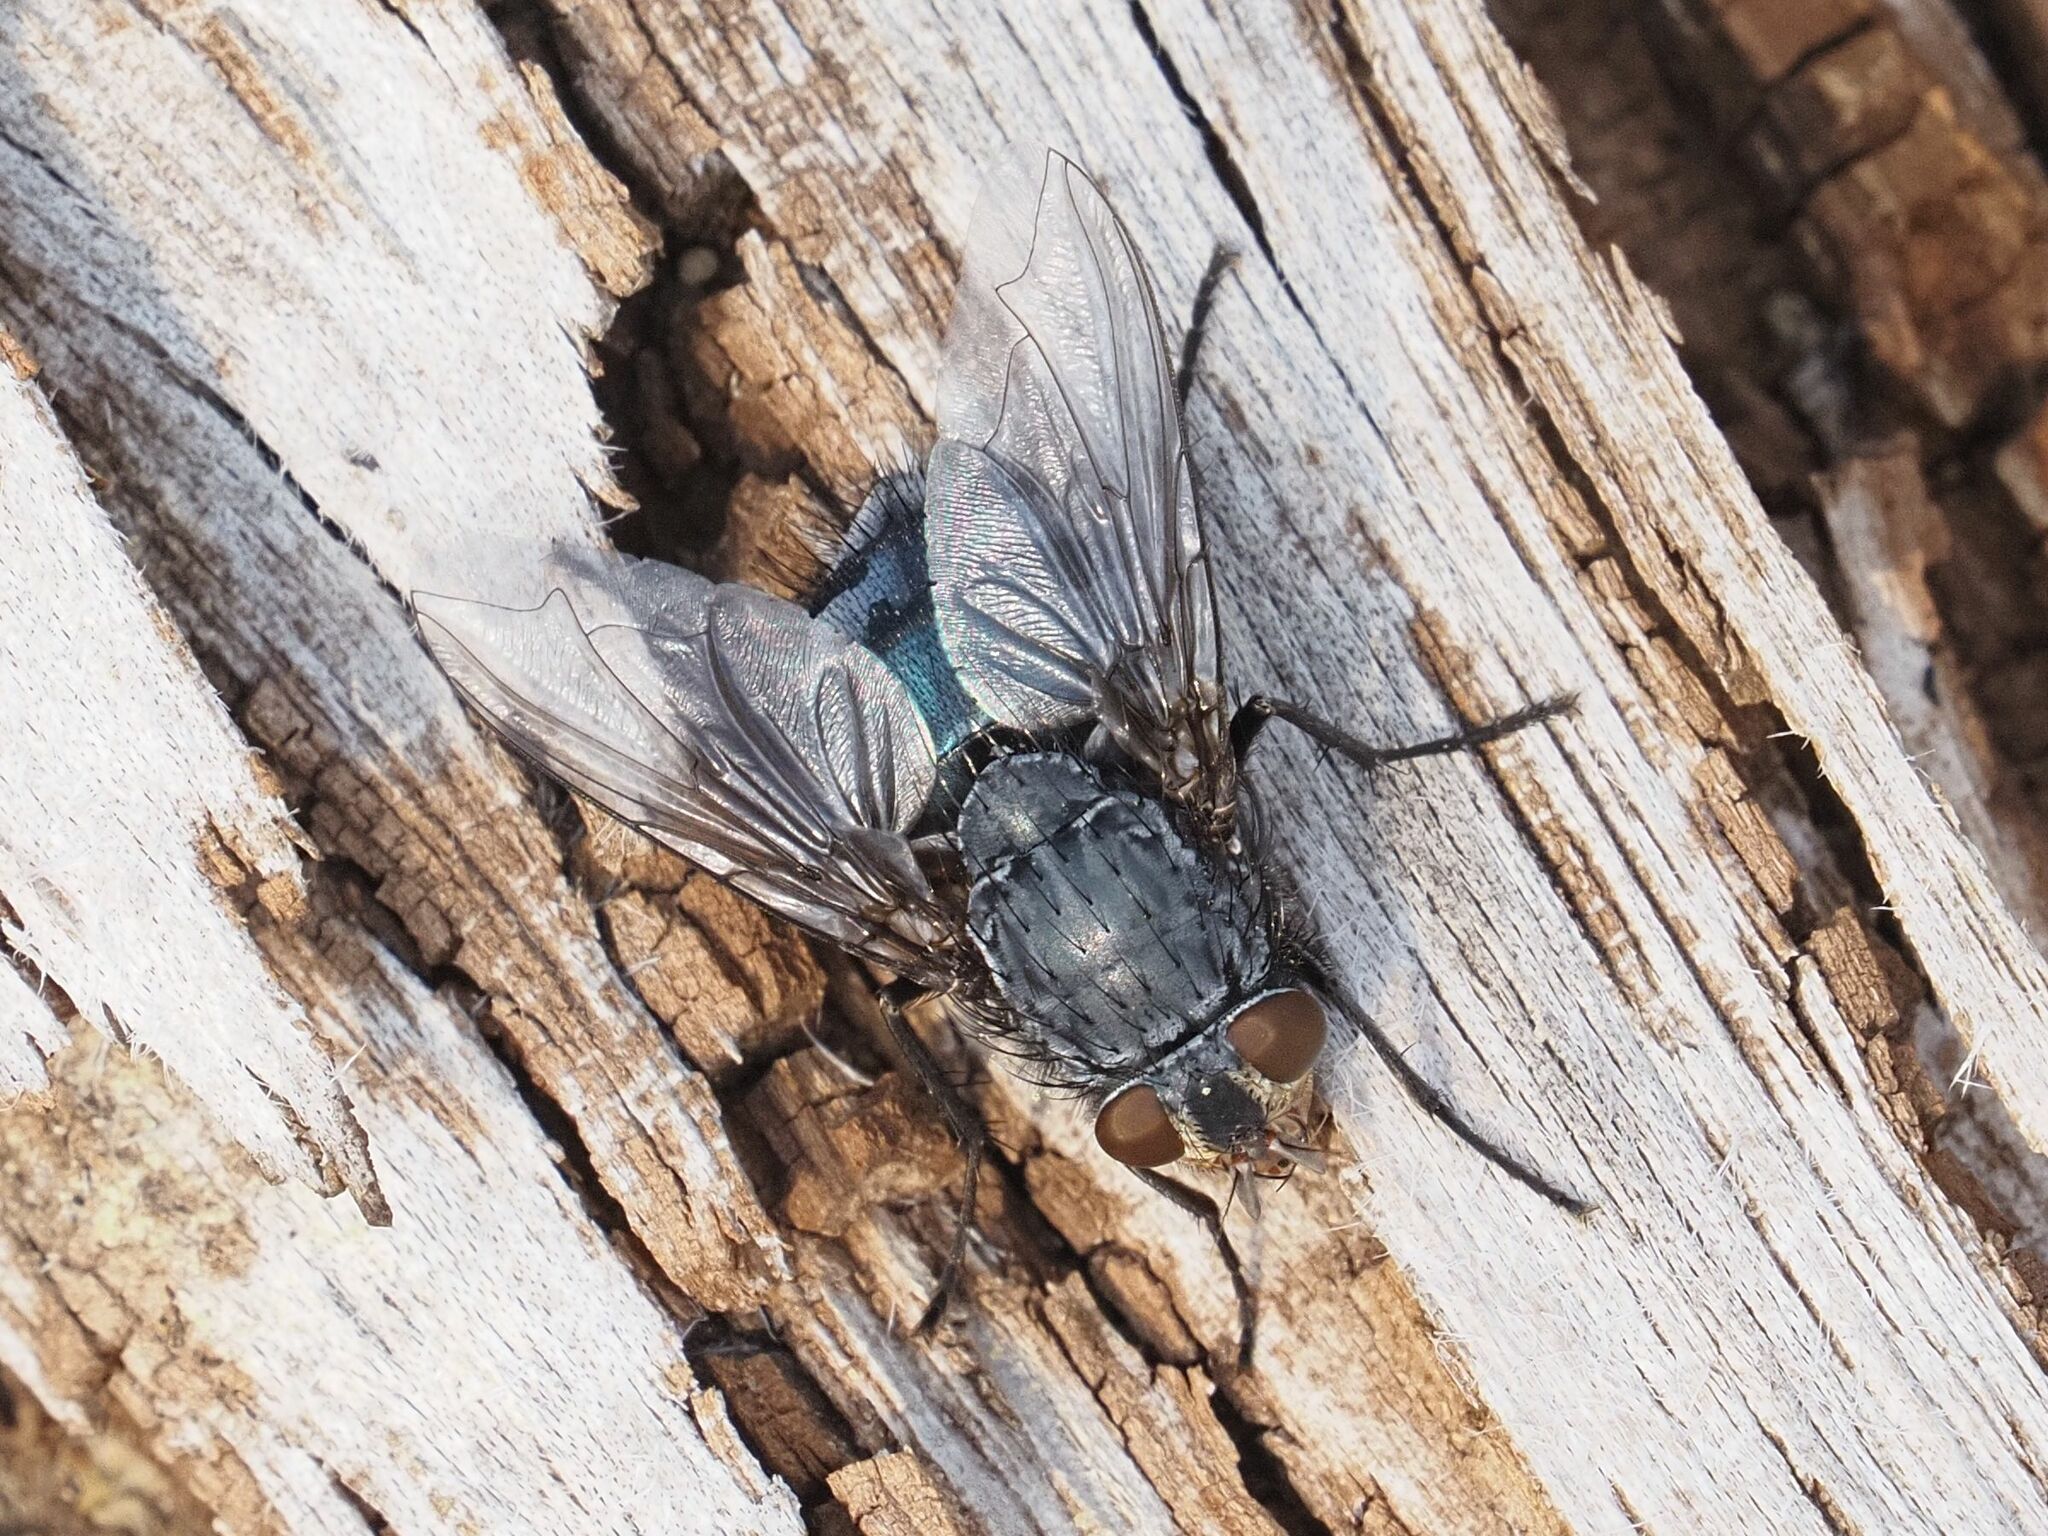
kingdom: Animalia
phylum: Arthropoda
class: Insecta
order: Diptera
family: Calliphoridae
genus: Calliphora
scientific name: Calliphora vicina
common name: Common blow flie
